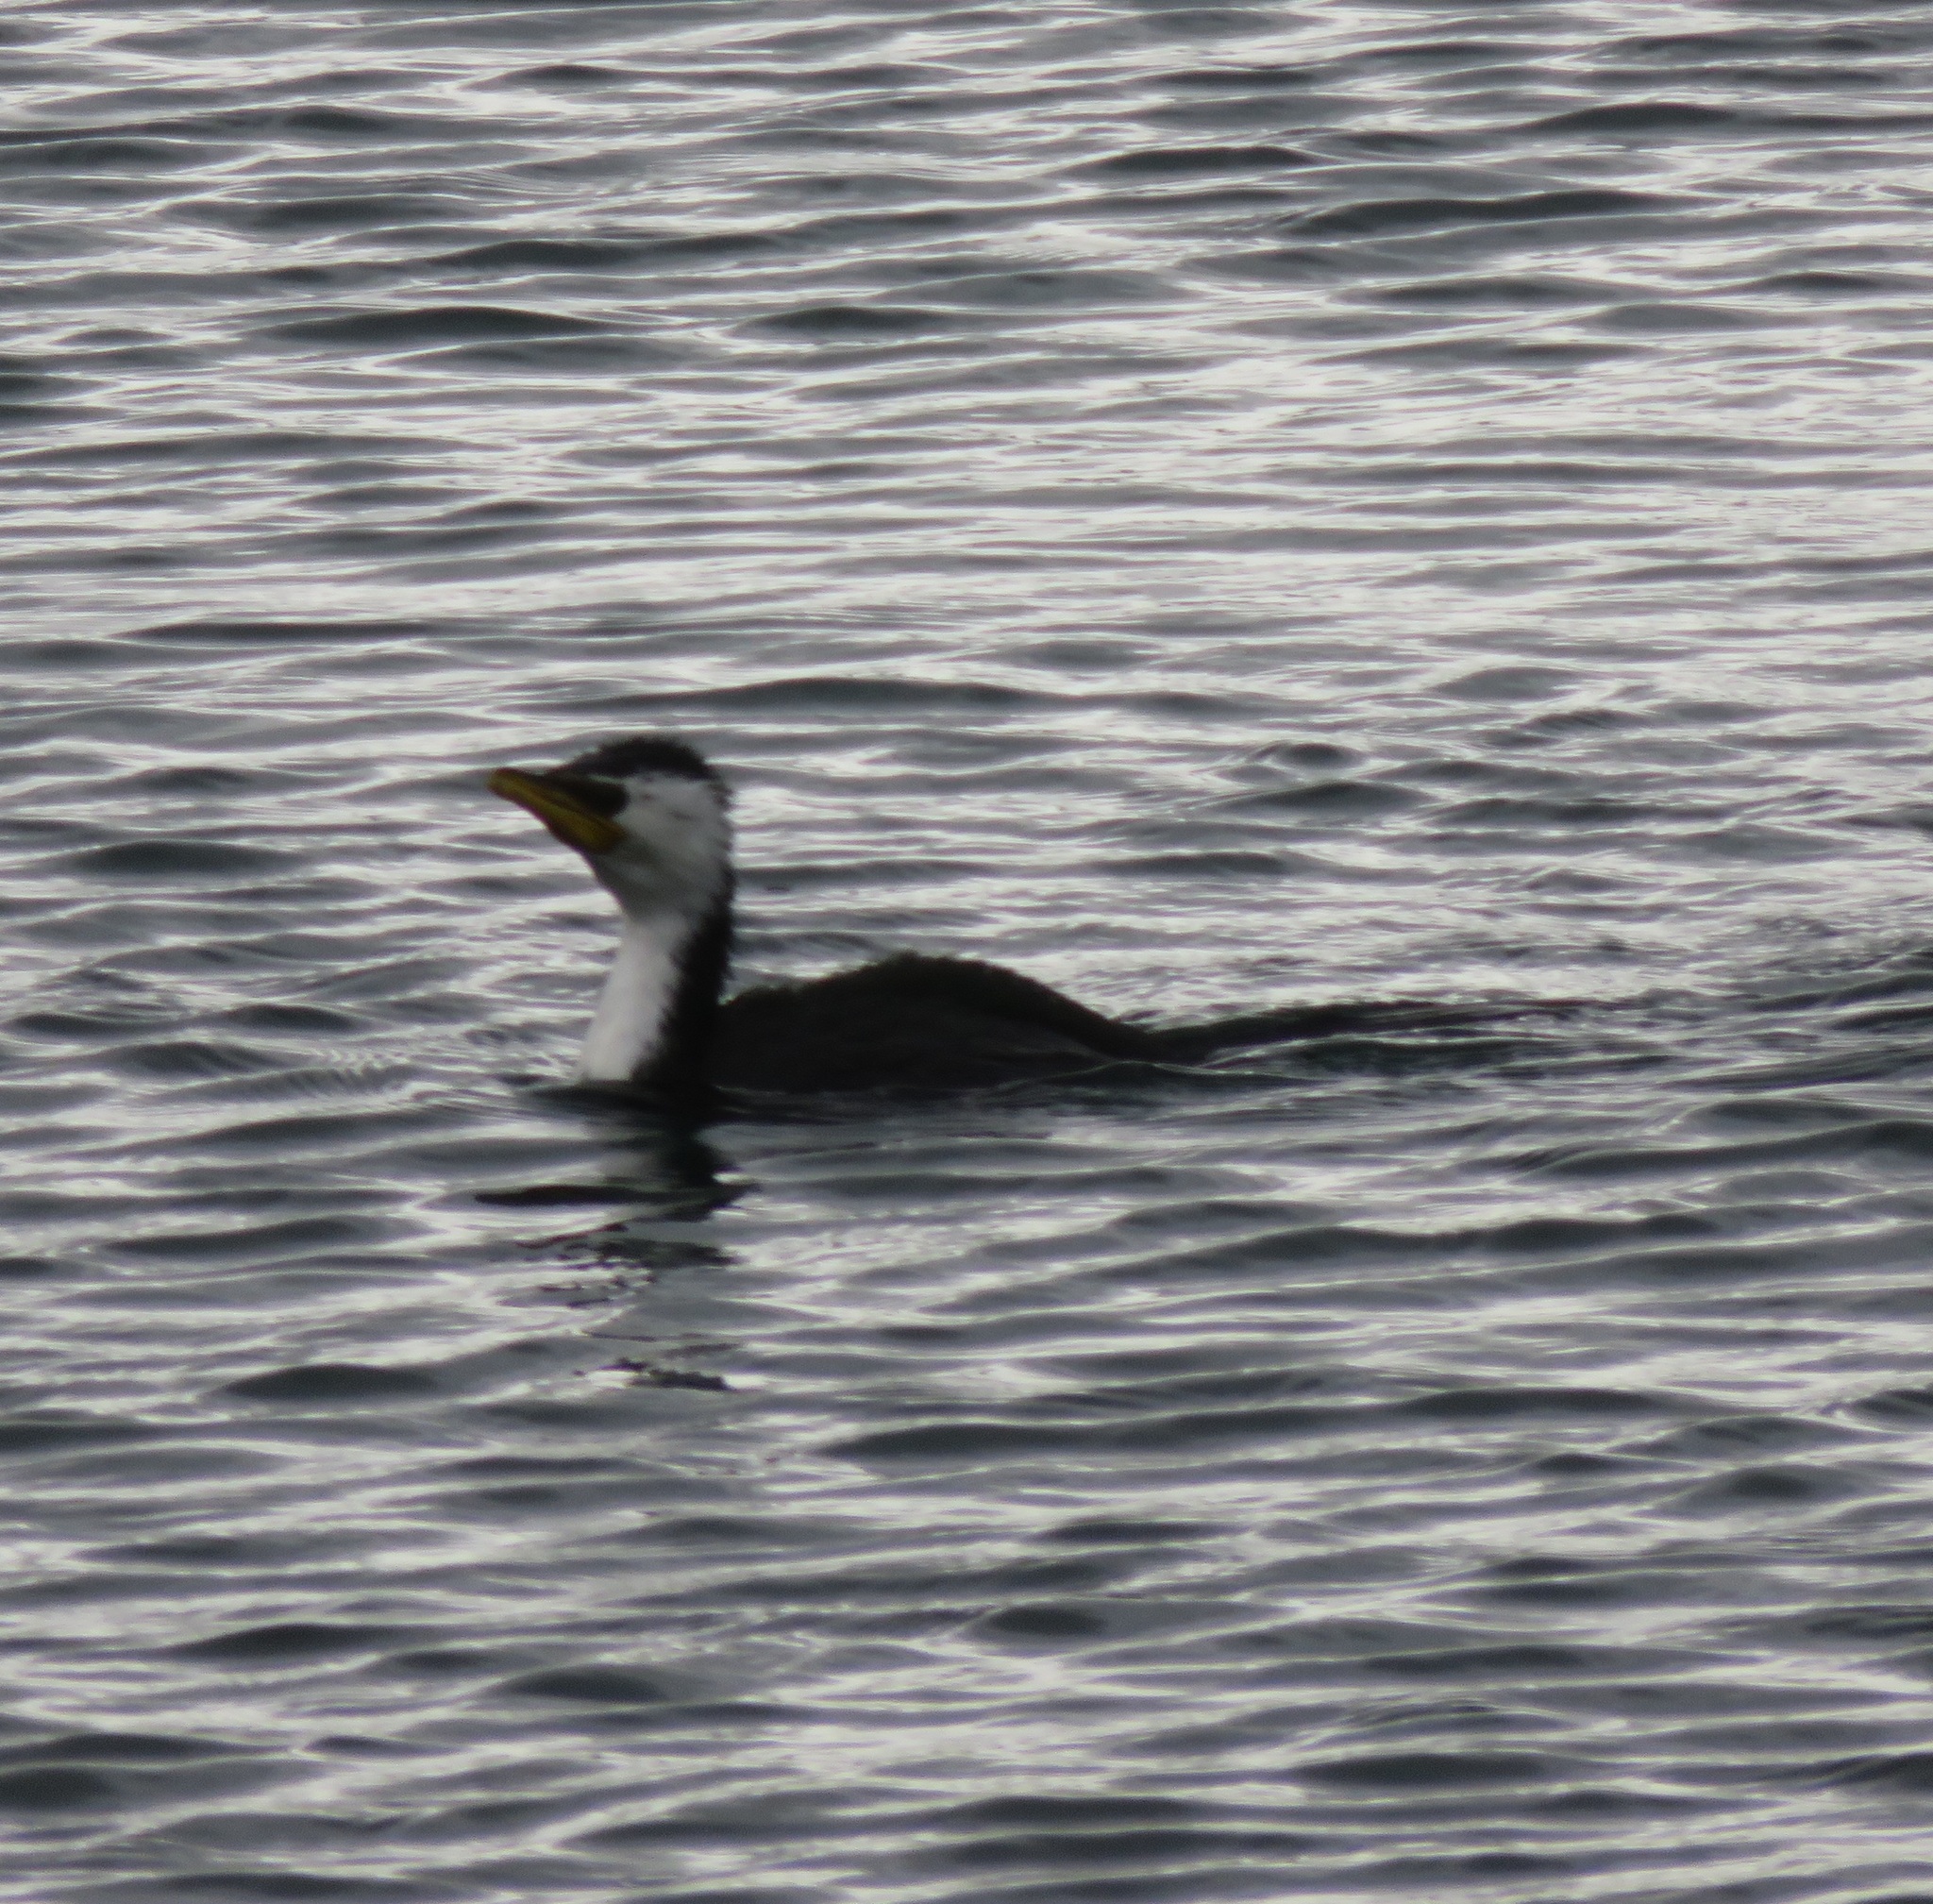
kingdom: Animalia
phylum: Chordata
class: Aves
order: Suliformes
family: Phalacrocoracidae
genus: Microcarbo
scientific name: Microcarbo melanoleucos
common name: Little pied cormorant
